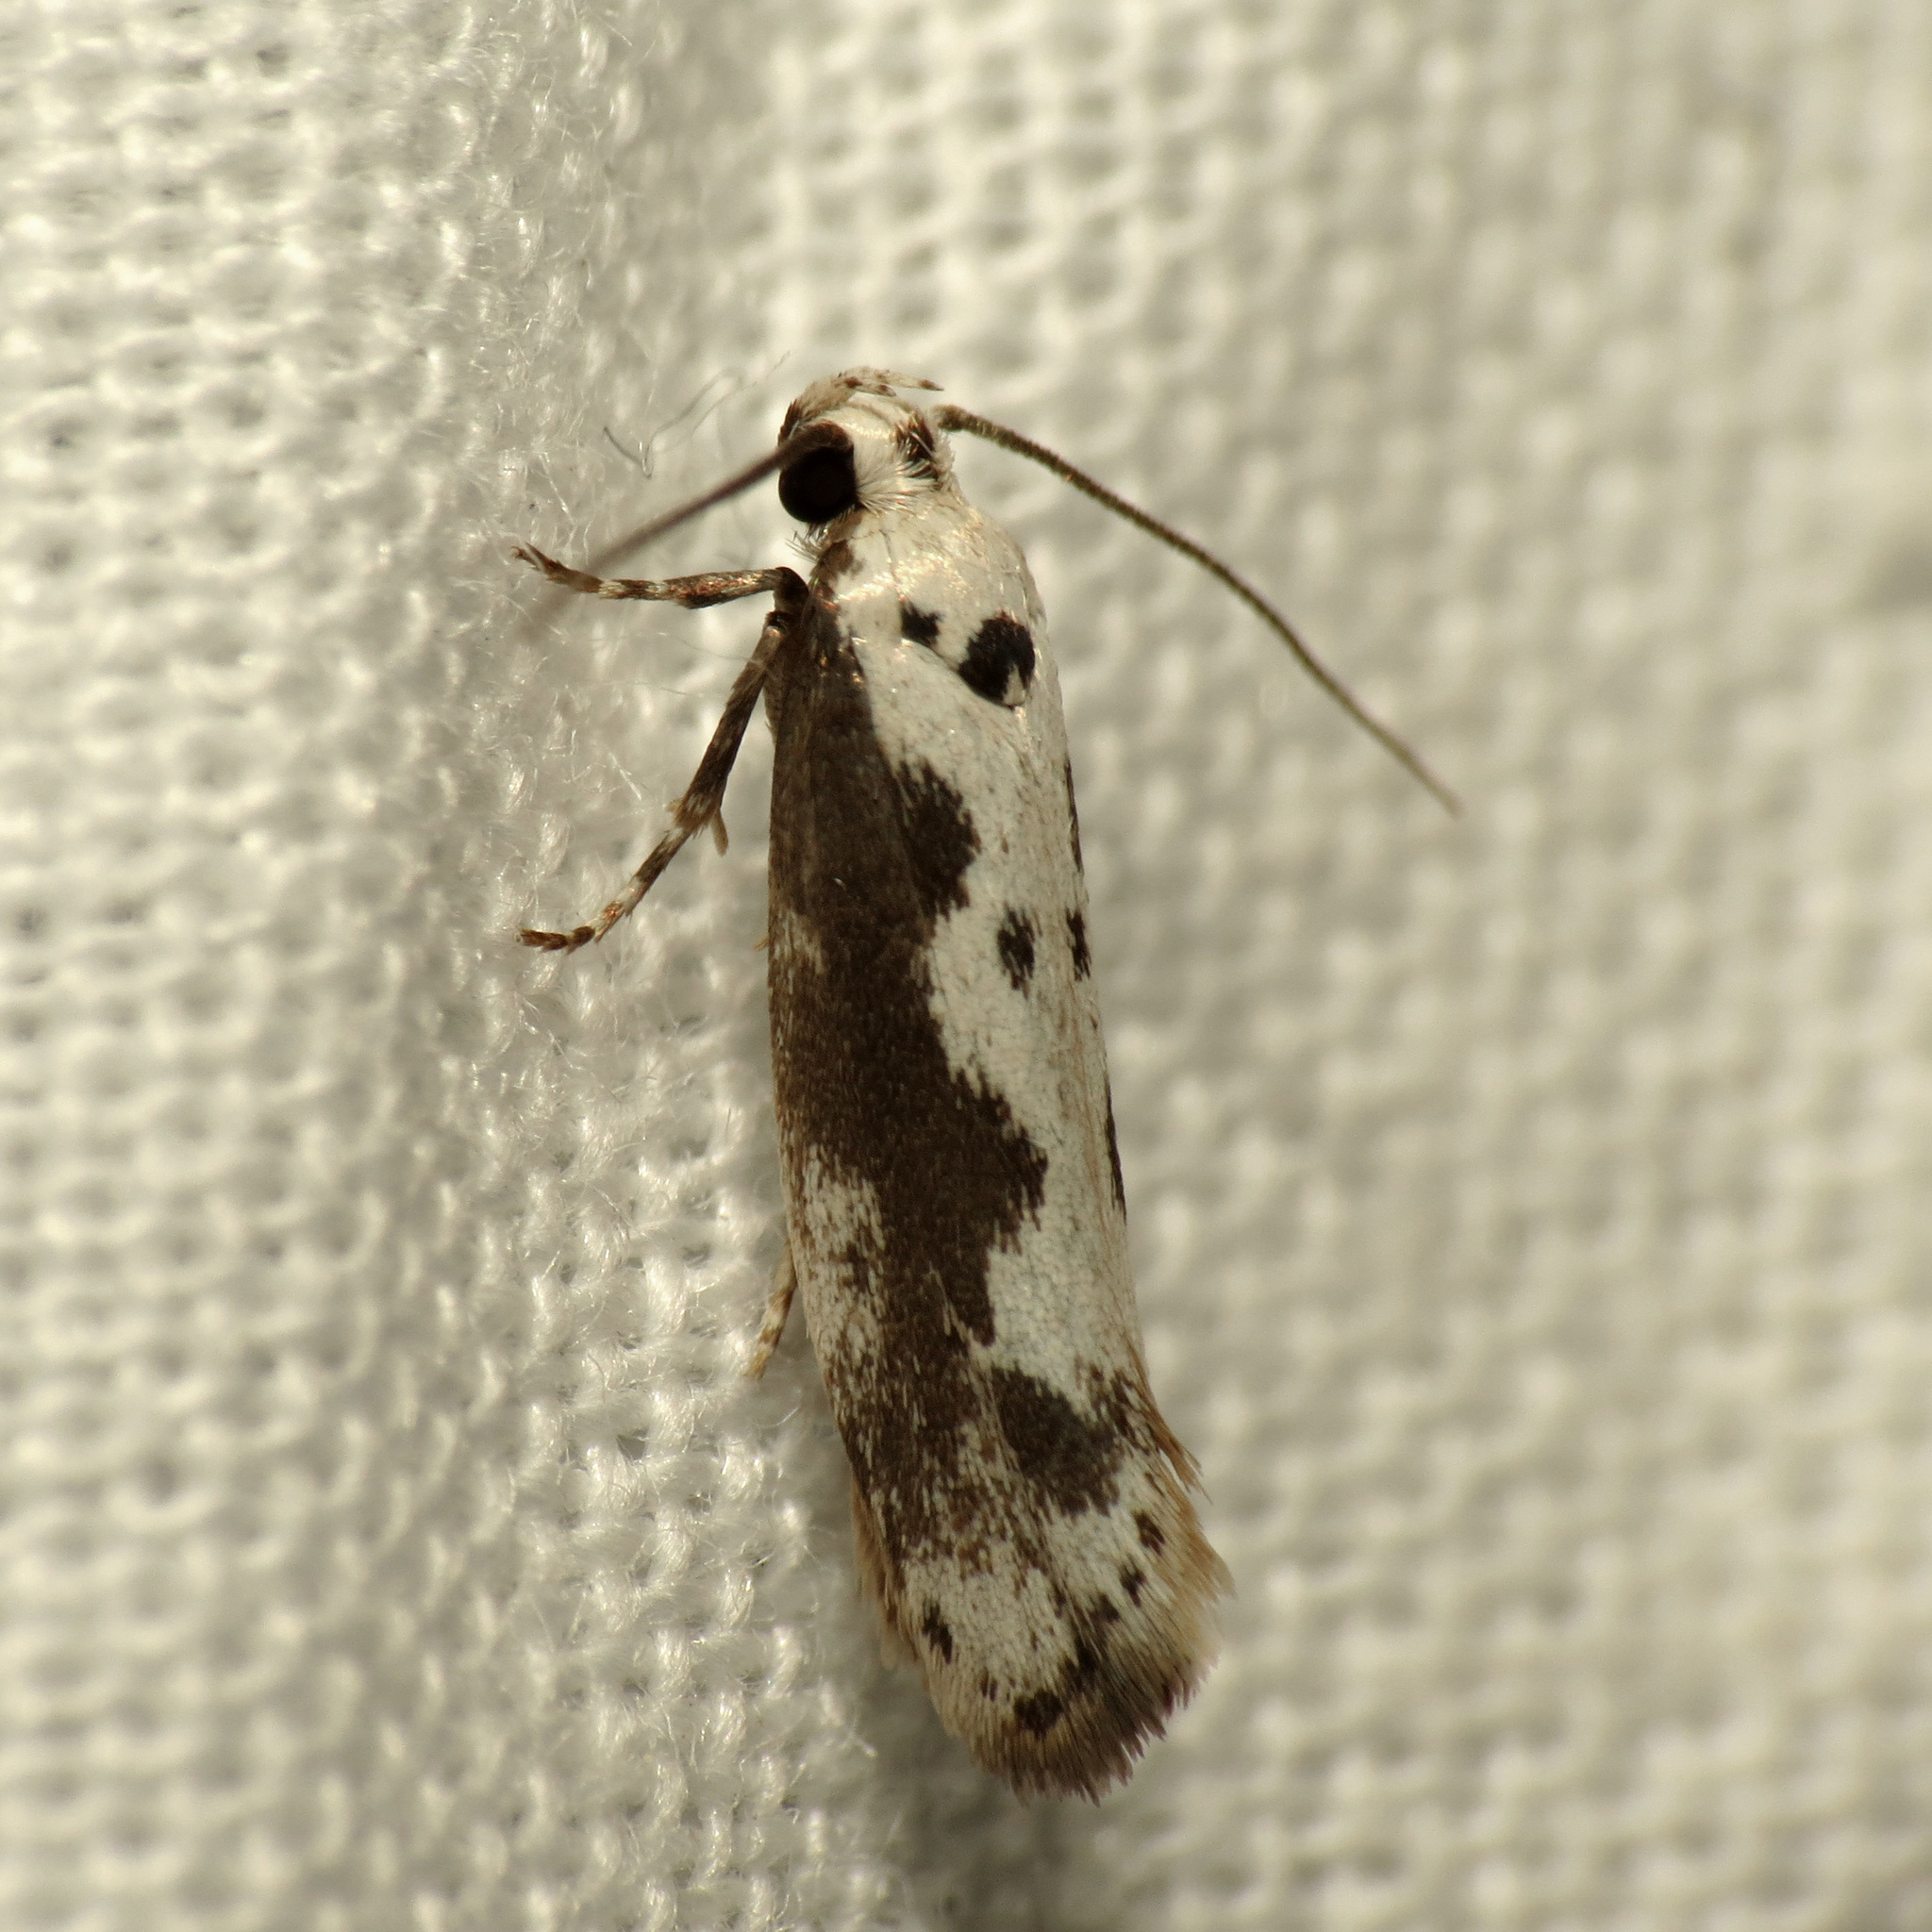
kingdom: Animalia
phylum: Arthropoda
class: Insecta
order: Lepidoptera
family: Ethmiidae
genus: Ethmia
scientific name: Ethmia hodgesella
